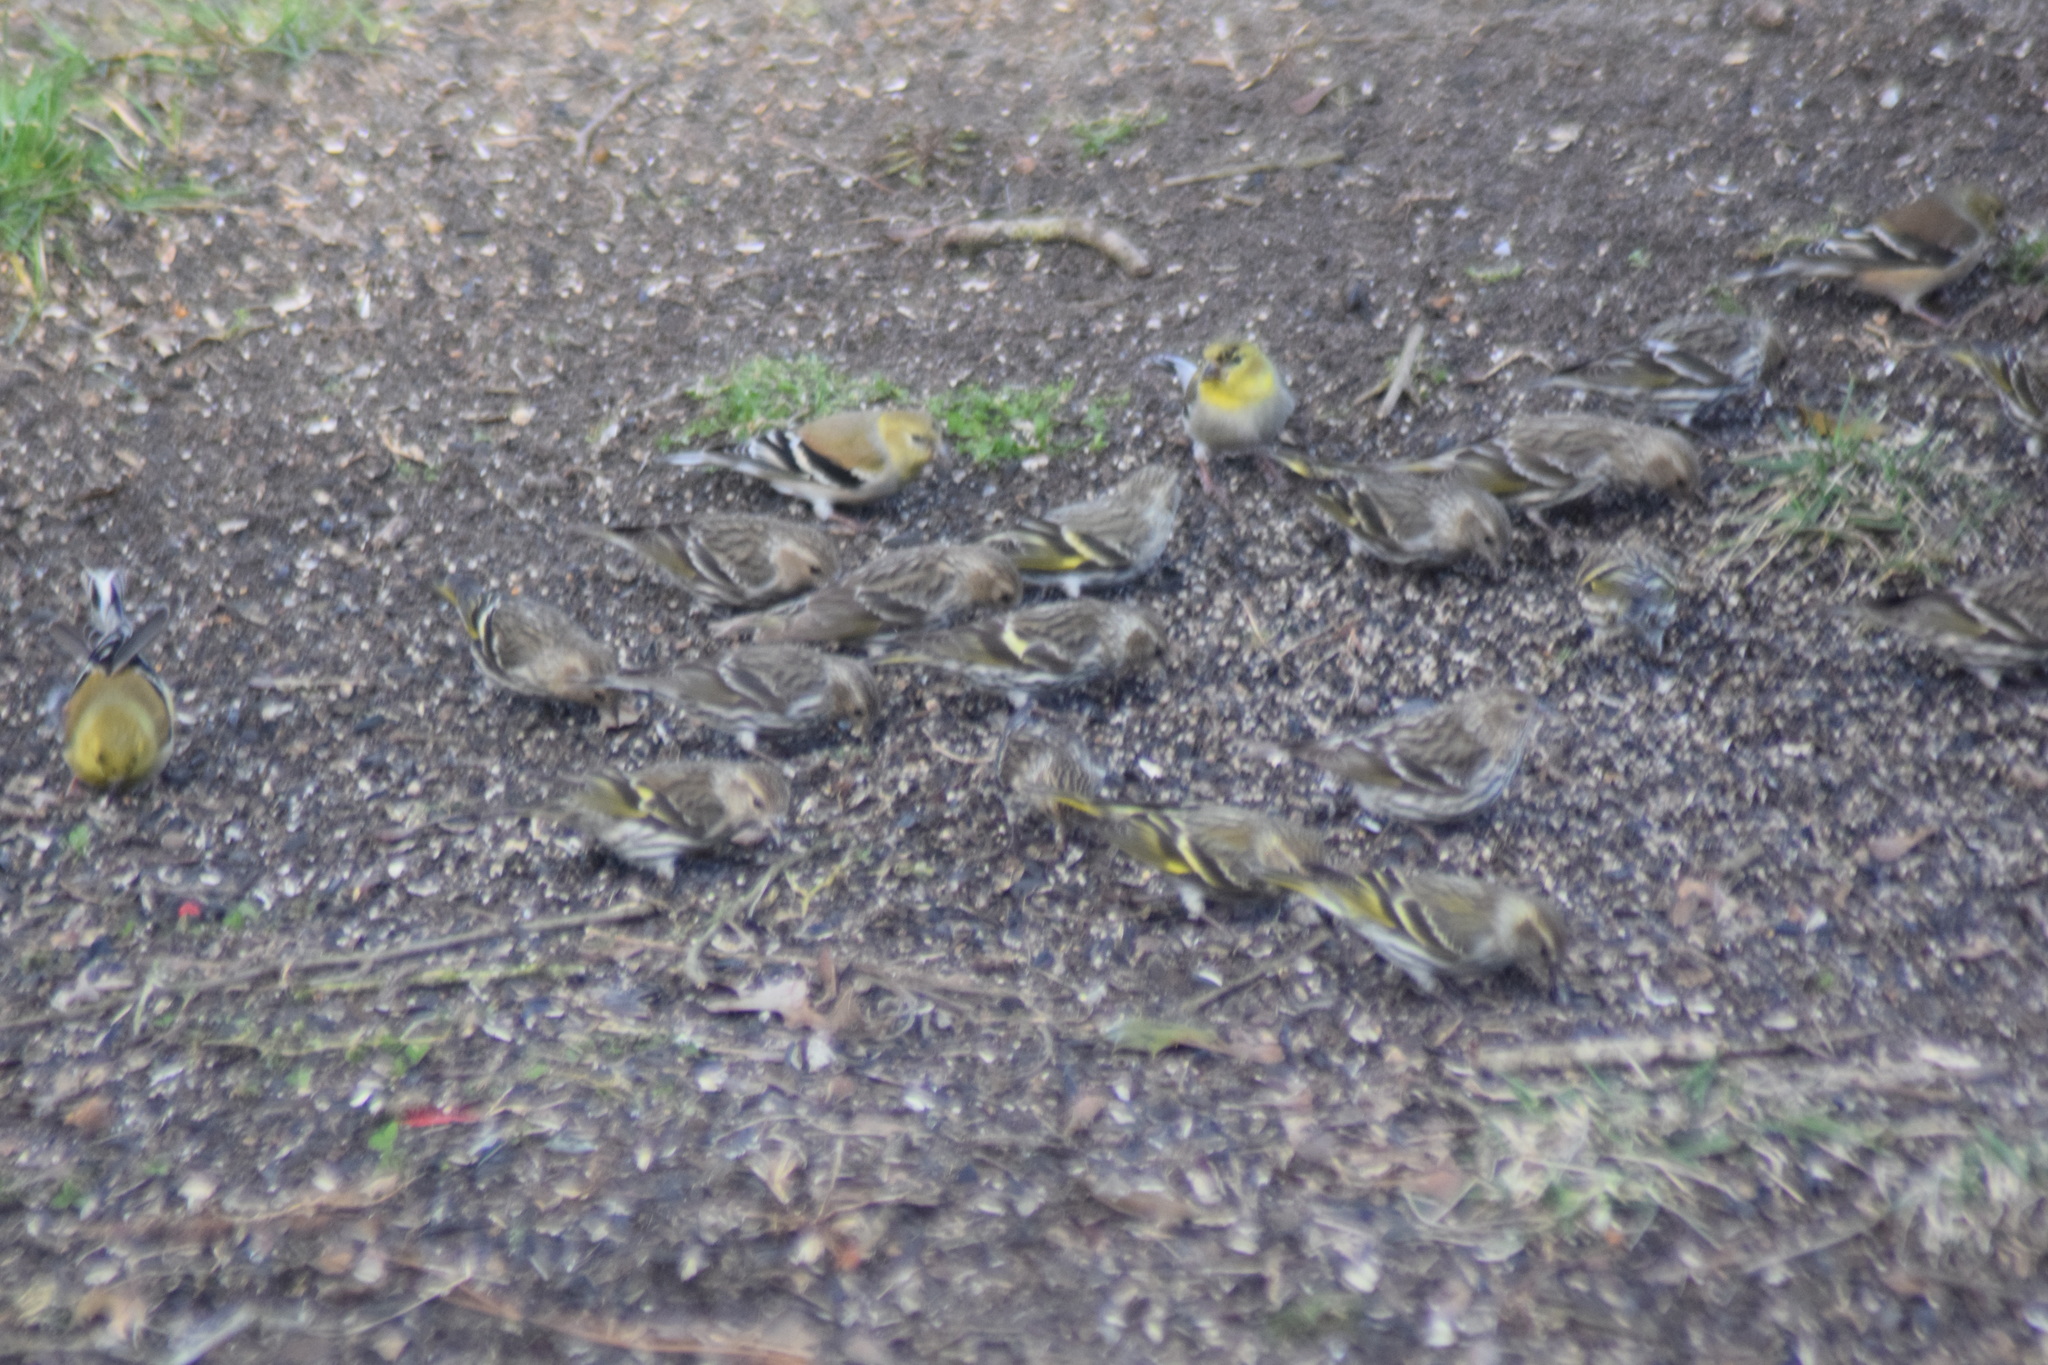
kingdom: Animalia
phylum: Chordata
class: Aves
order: Passeriformes
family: Fringillidae
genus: Spinus
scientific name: Spinus pinus
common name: Pine siskin
